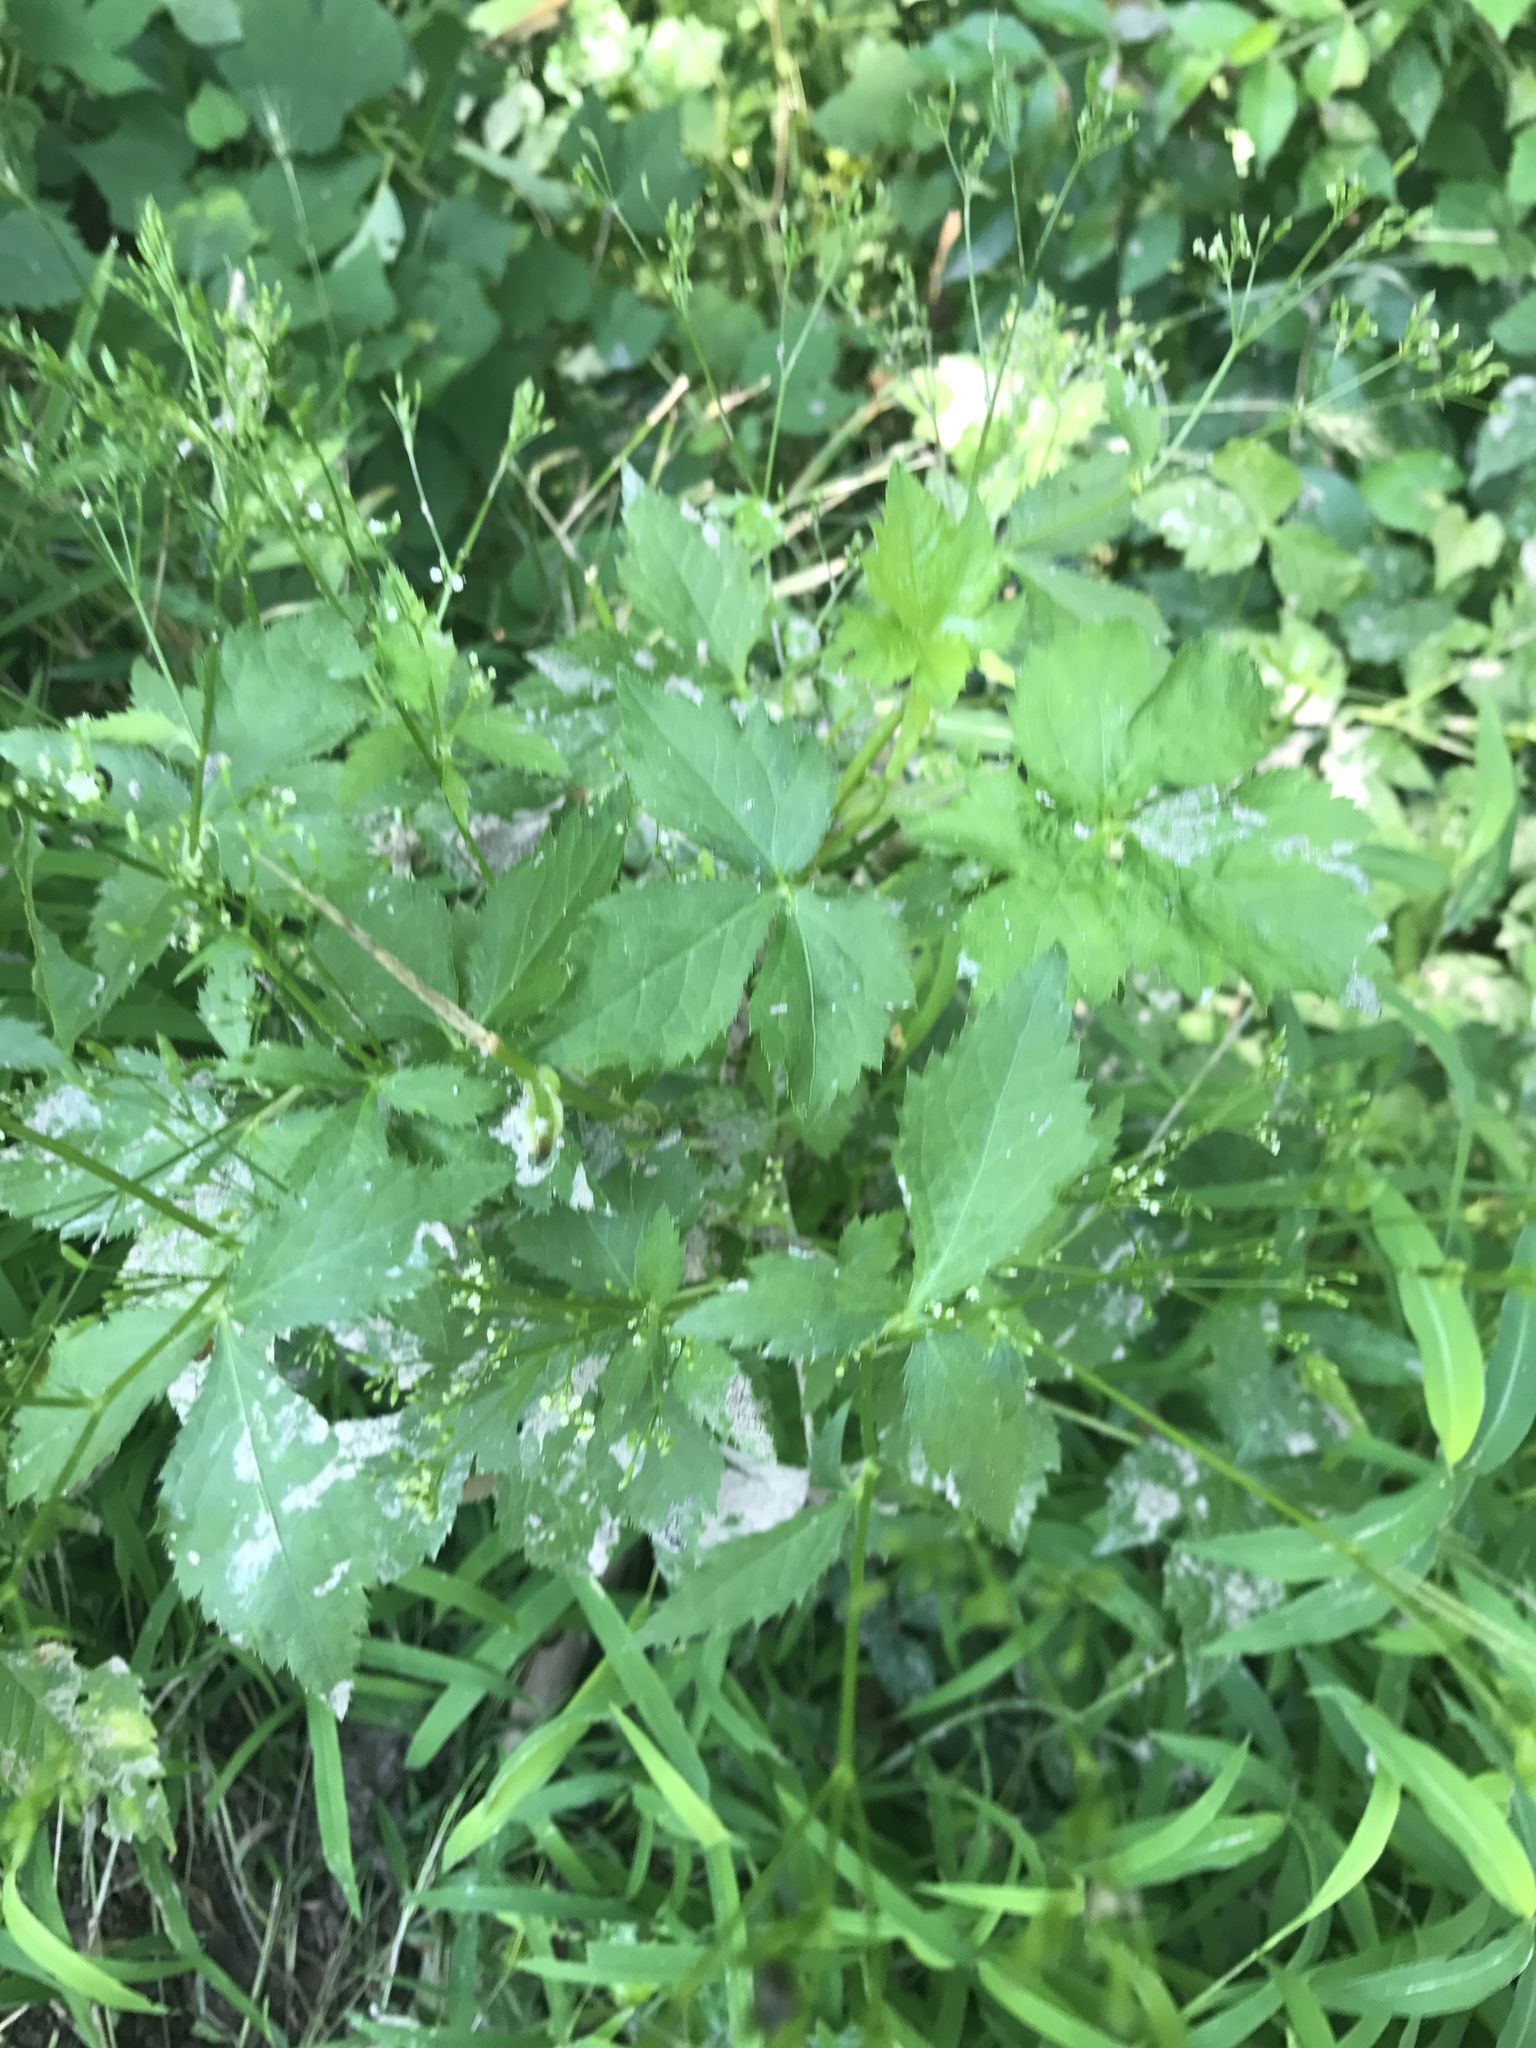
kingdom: Plantae
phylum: Tracheophyta
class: Magnoliopsida
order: Apiales
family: Apiaceae
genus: Cryptotaenia
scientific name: Cryptotaenia canadensis
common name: Honewort
